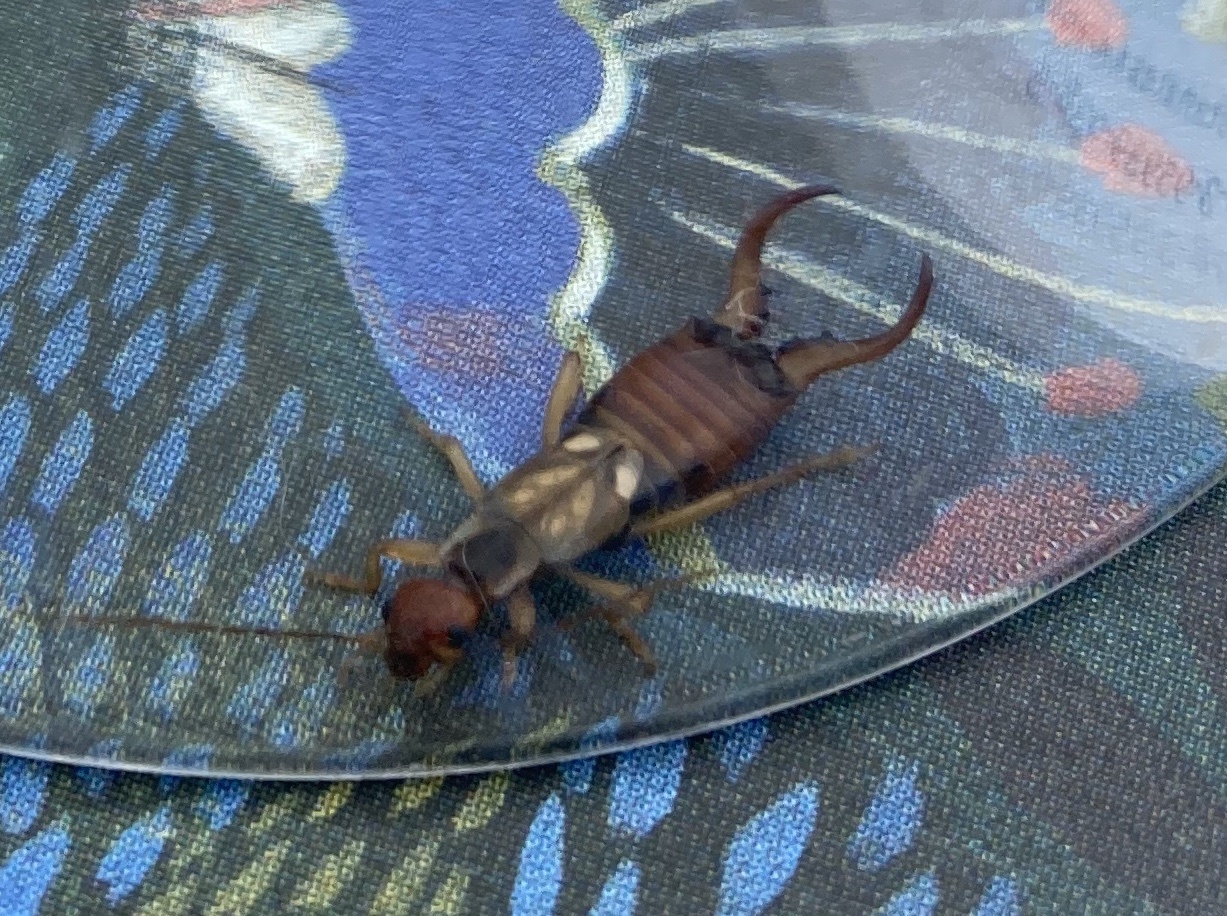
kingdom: Animalia
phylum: Arthropoda
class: Insecta
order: Dermaptera
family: Forficulidae
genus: Forficula
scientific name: Forficula
